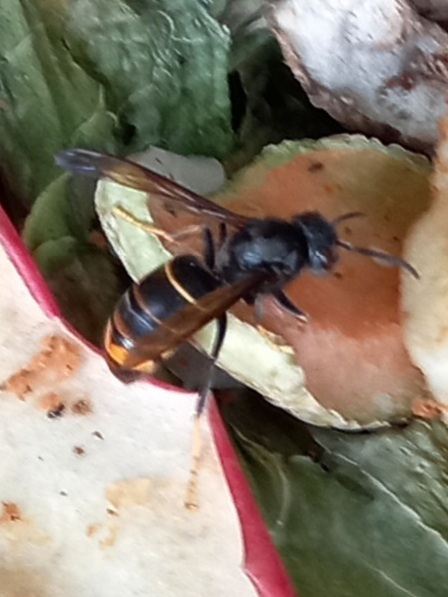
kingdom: Animalia
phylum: Arthropoda
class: Insecta
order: Hymenoptera
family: Vespidae
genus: Vespa
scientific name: Vespa velutina
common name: Asian hornet
